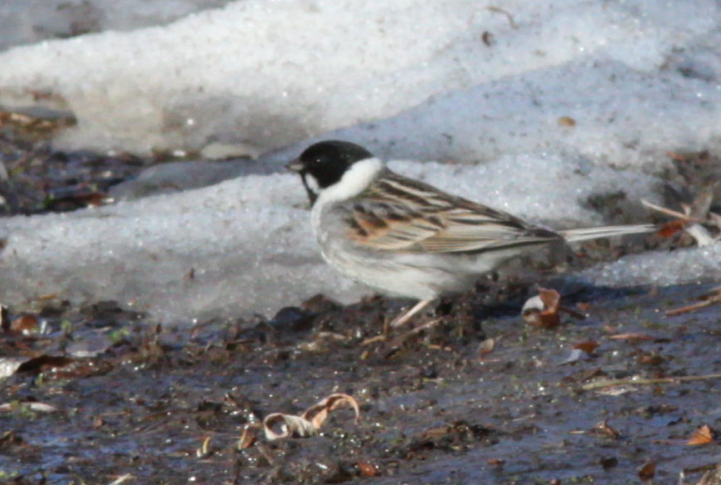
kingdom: Animalia
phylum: Chordata
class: Aves
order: Passeriformes
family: Emberizidae
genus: Emberiza
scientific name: Emberiza schoeniclus
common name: Reed bunting
